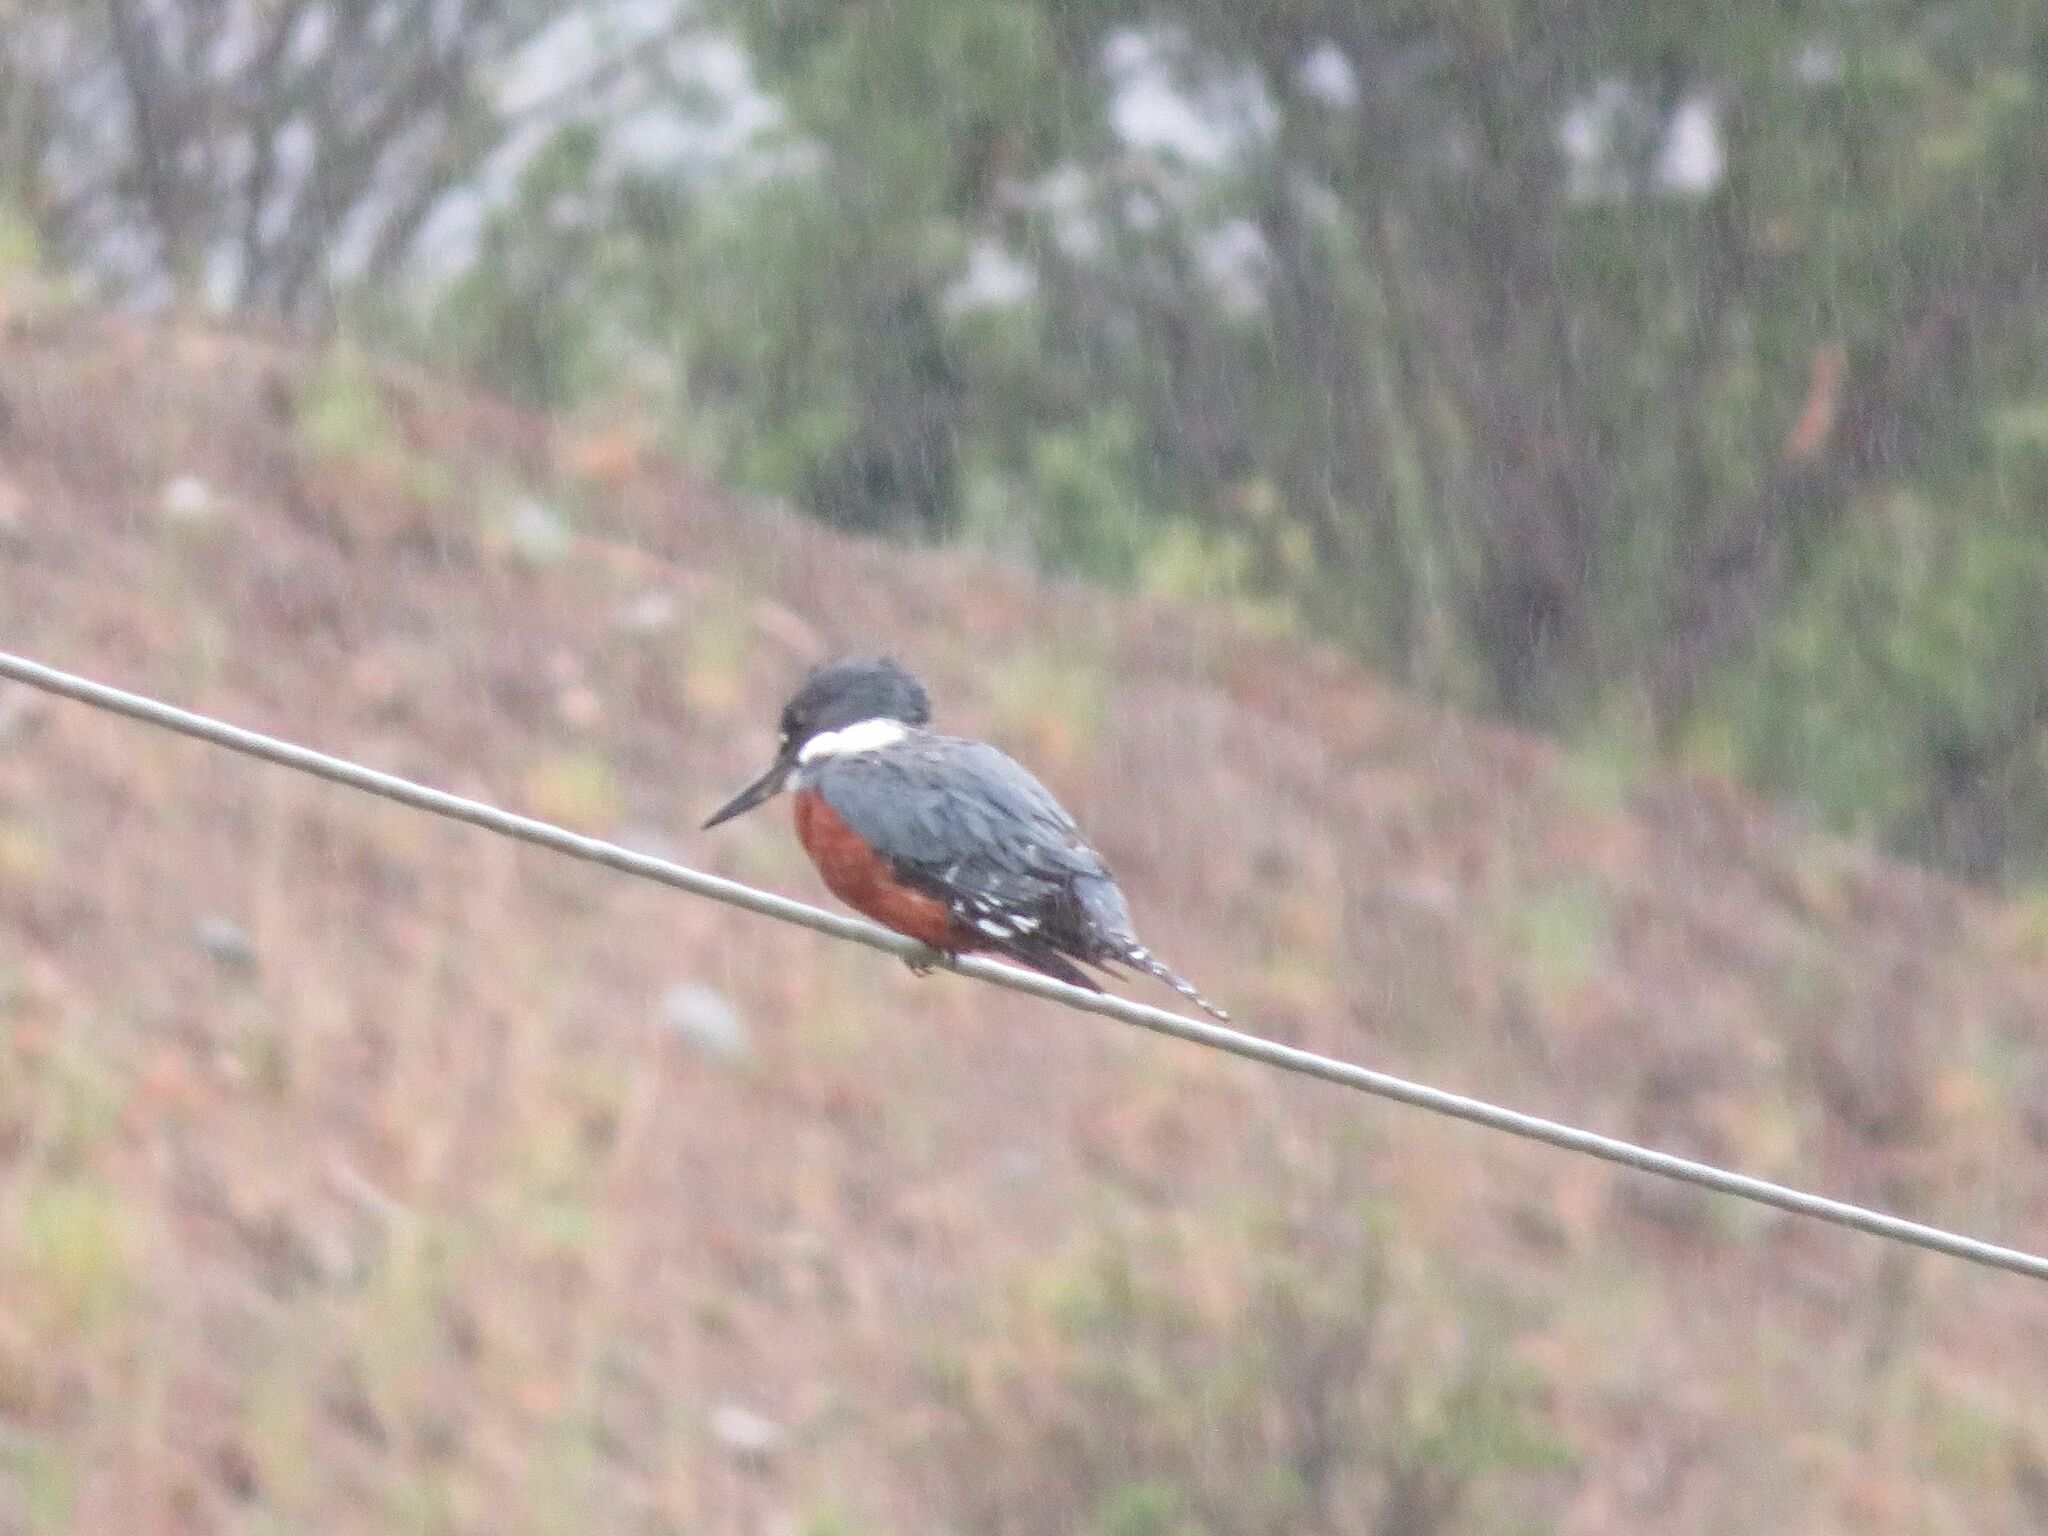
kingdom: Animalia
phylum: Chordata
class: Aves
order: Coraciiformes
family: Alcedinidae
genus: Megaceryle
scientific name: Megaceryle torquata
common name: Ringed kingfisher
